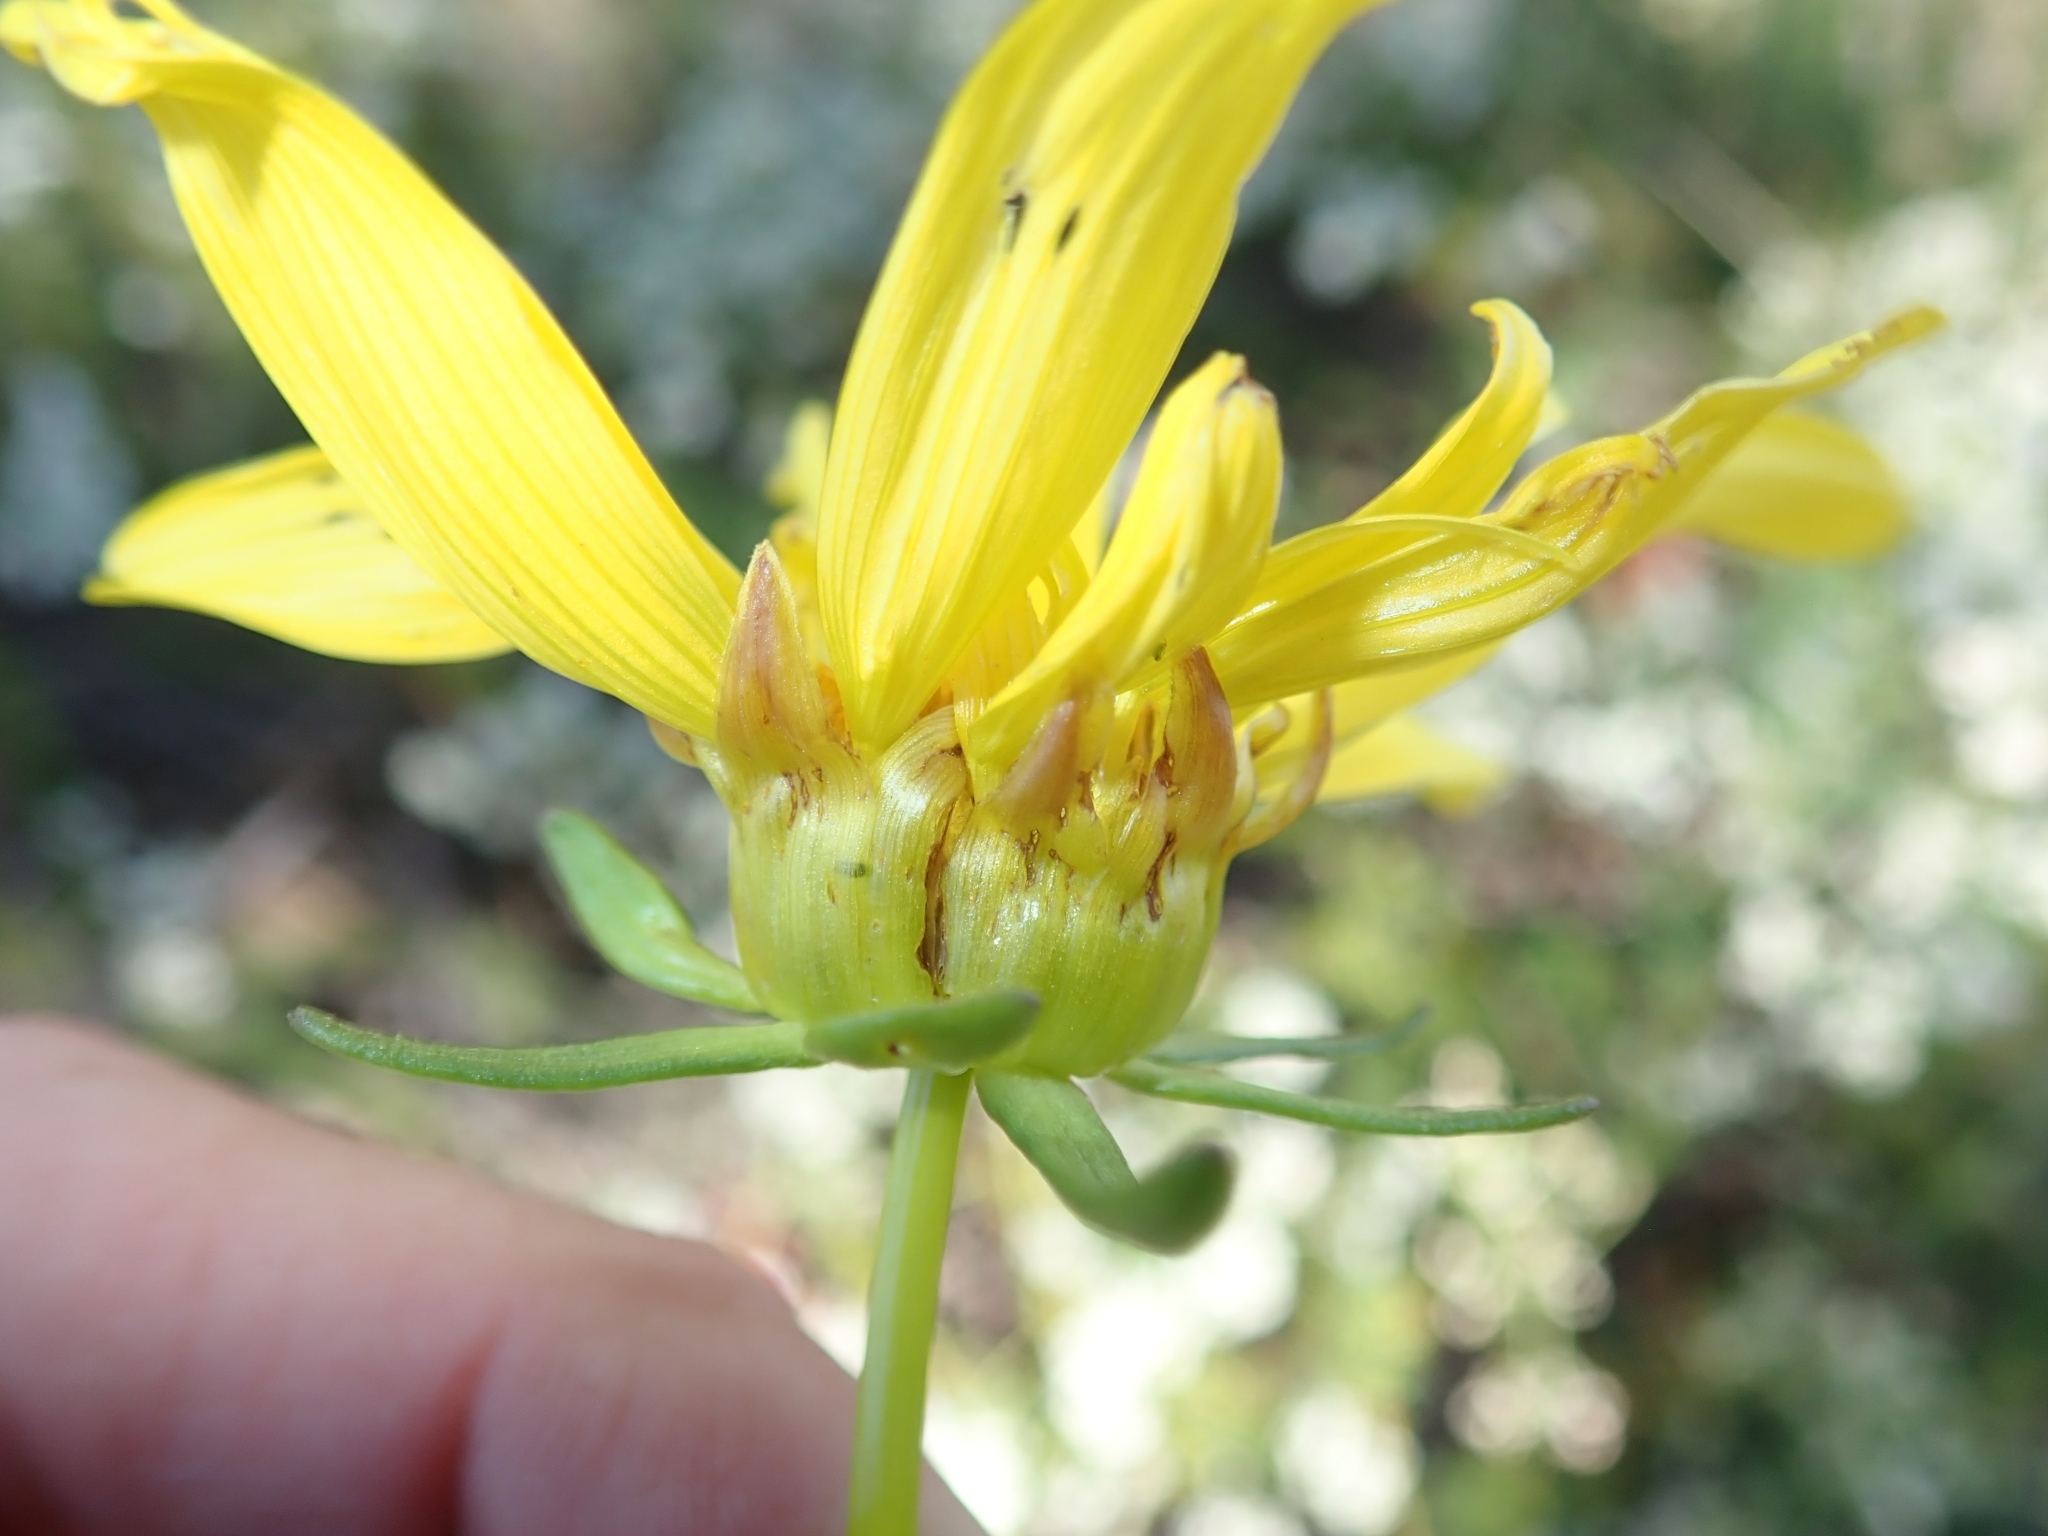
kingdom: Plantae
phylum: Tracheophyta
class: Magnoliopsida
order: Asterales
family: Asteraceae
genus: Coreopsis
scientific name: Coreopsis maritima
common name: Sea-dahlia
